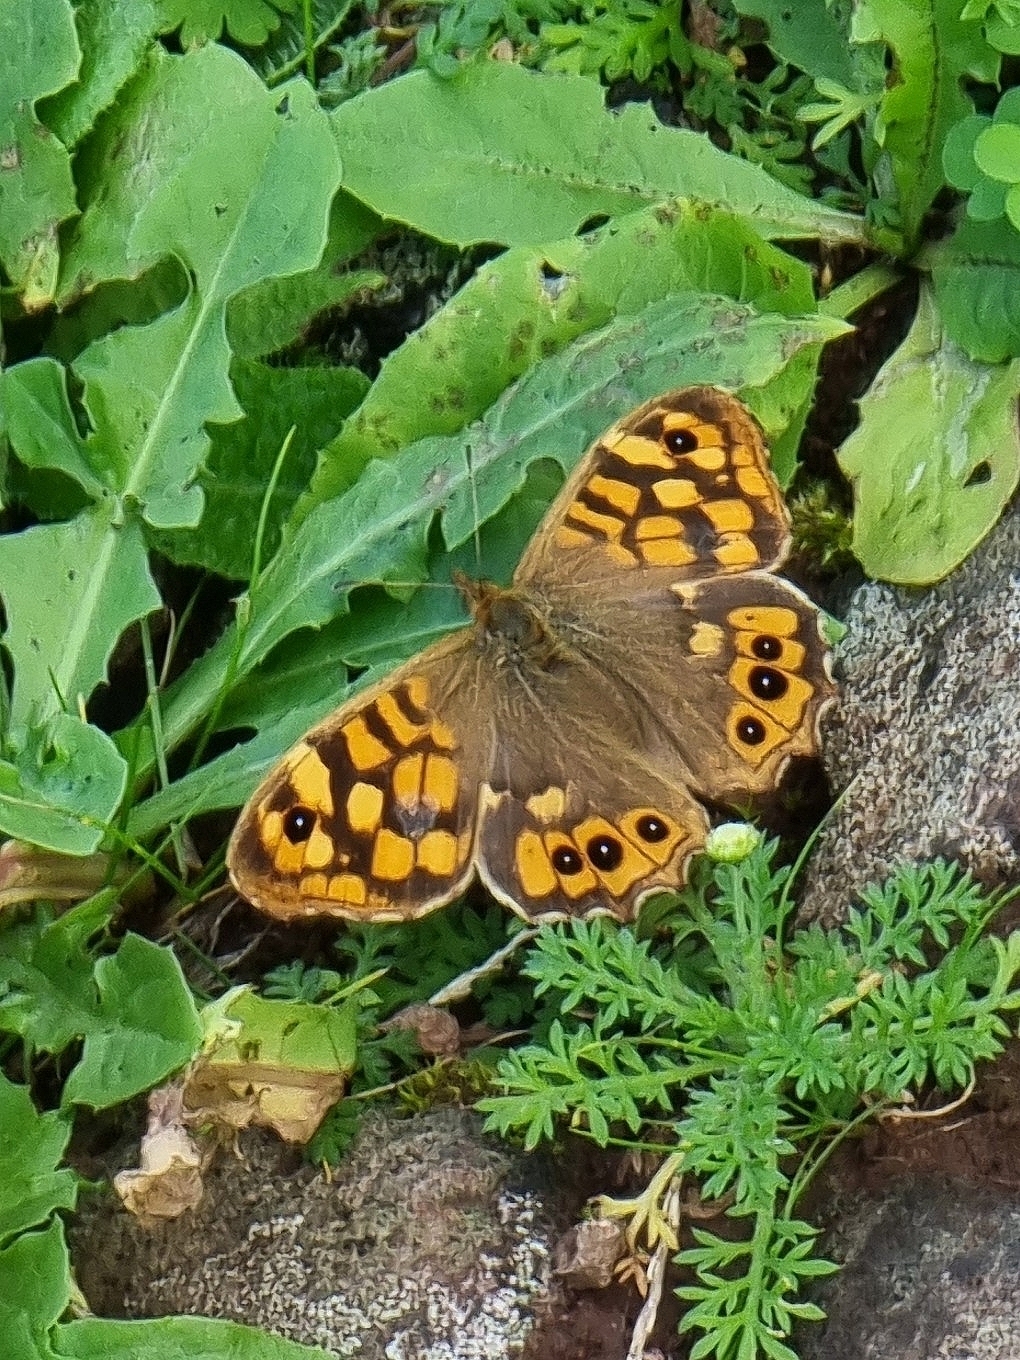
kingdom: Animalia
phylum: Arthropoda
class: Insecta
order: Lepidoptera
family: Nymphalidae
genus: Pararge
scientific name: Pararge aegeria
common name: Speckled wood
